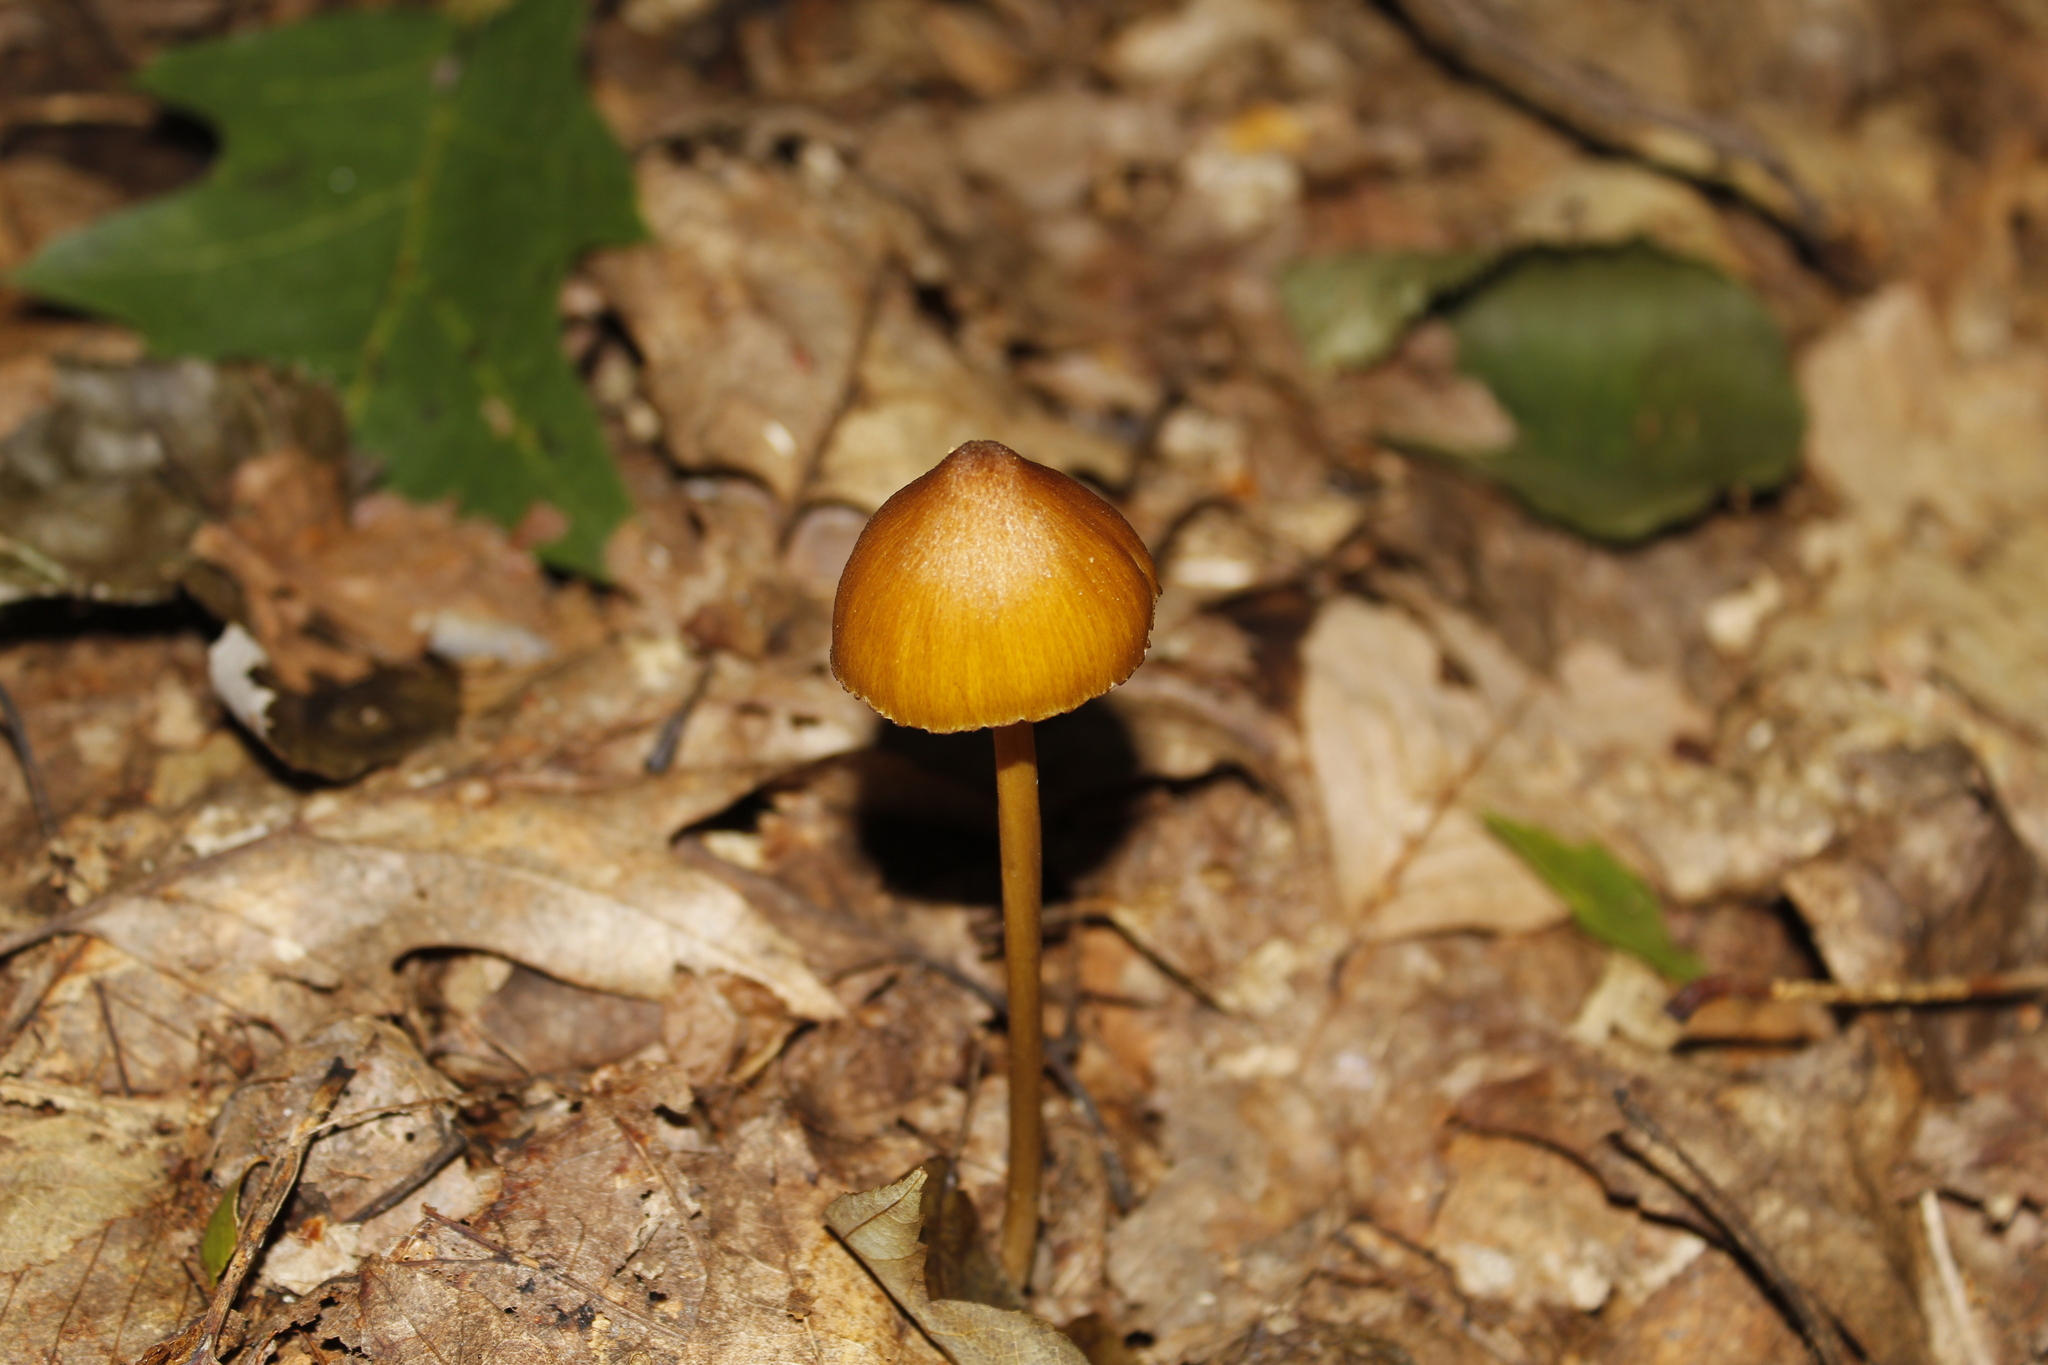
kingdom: Fungi
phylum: Basidiomycota
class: Agaricomycetes
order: Agaricales
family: Entolomataceae
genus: Entoloma
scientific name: Entoloma luteum
